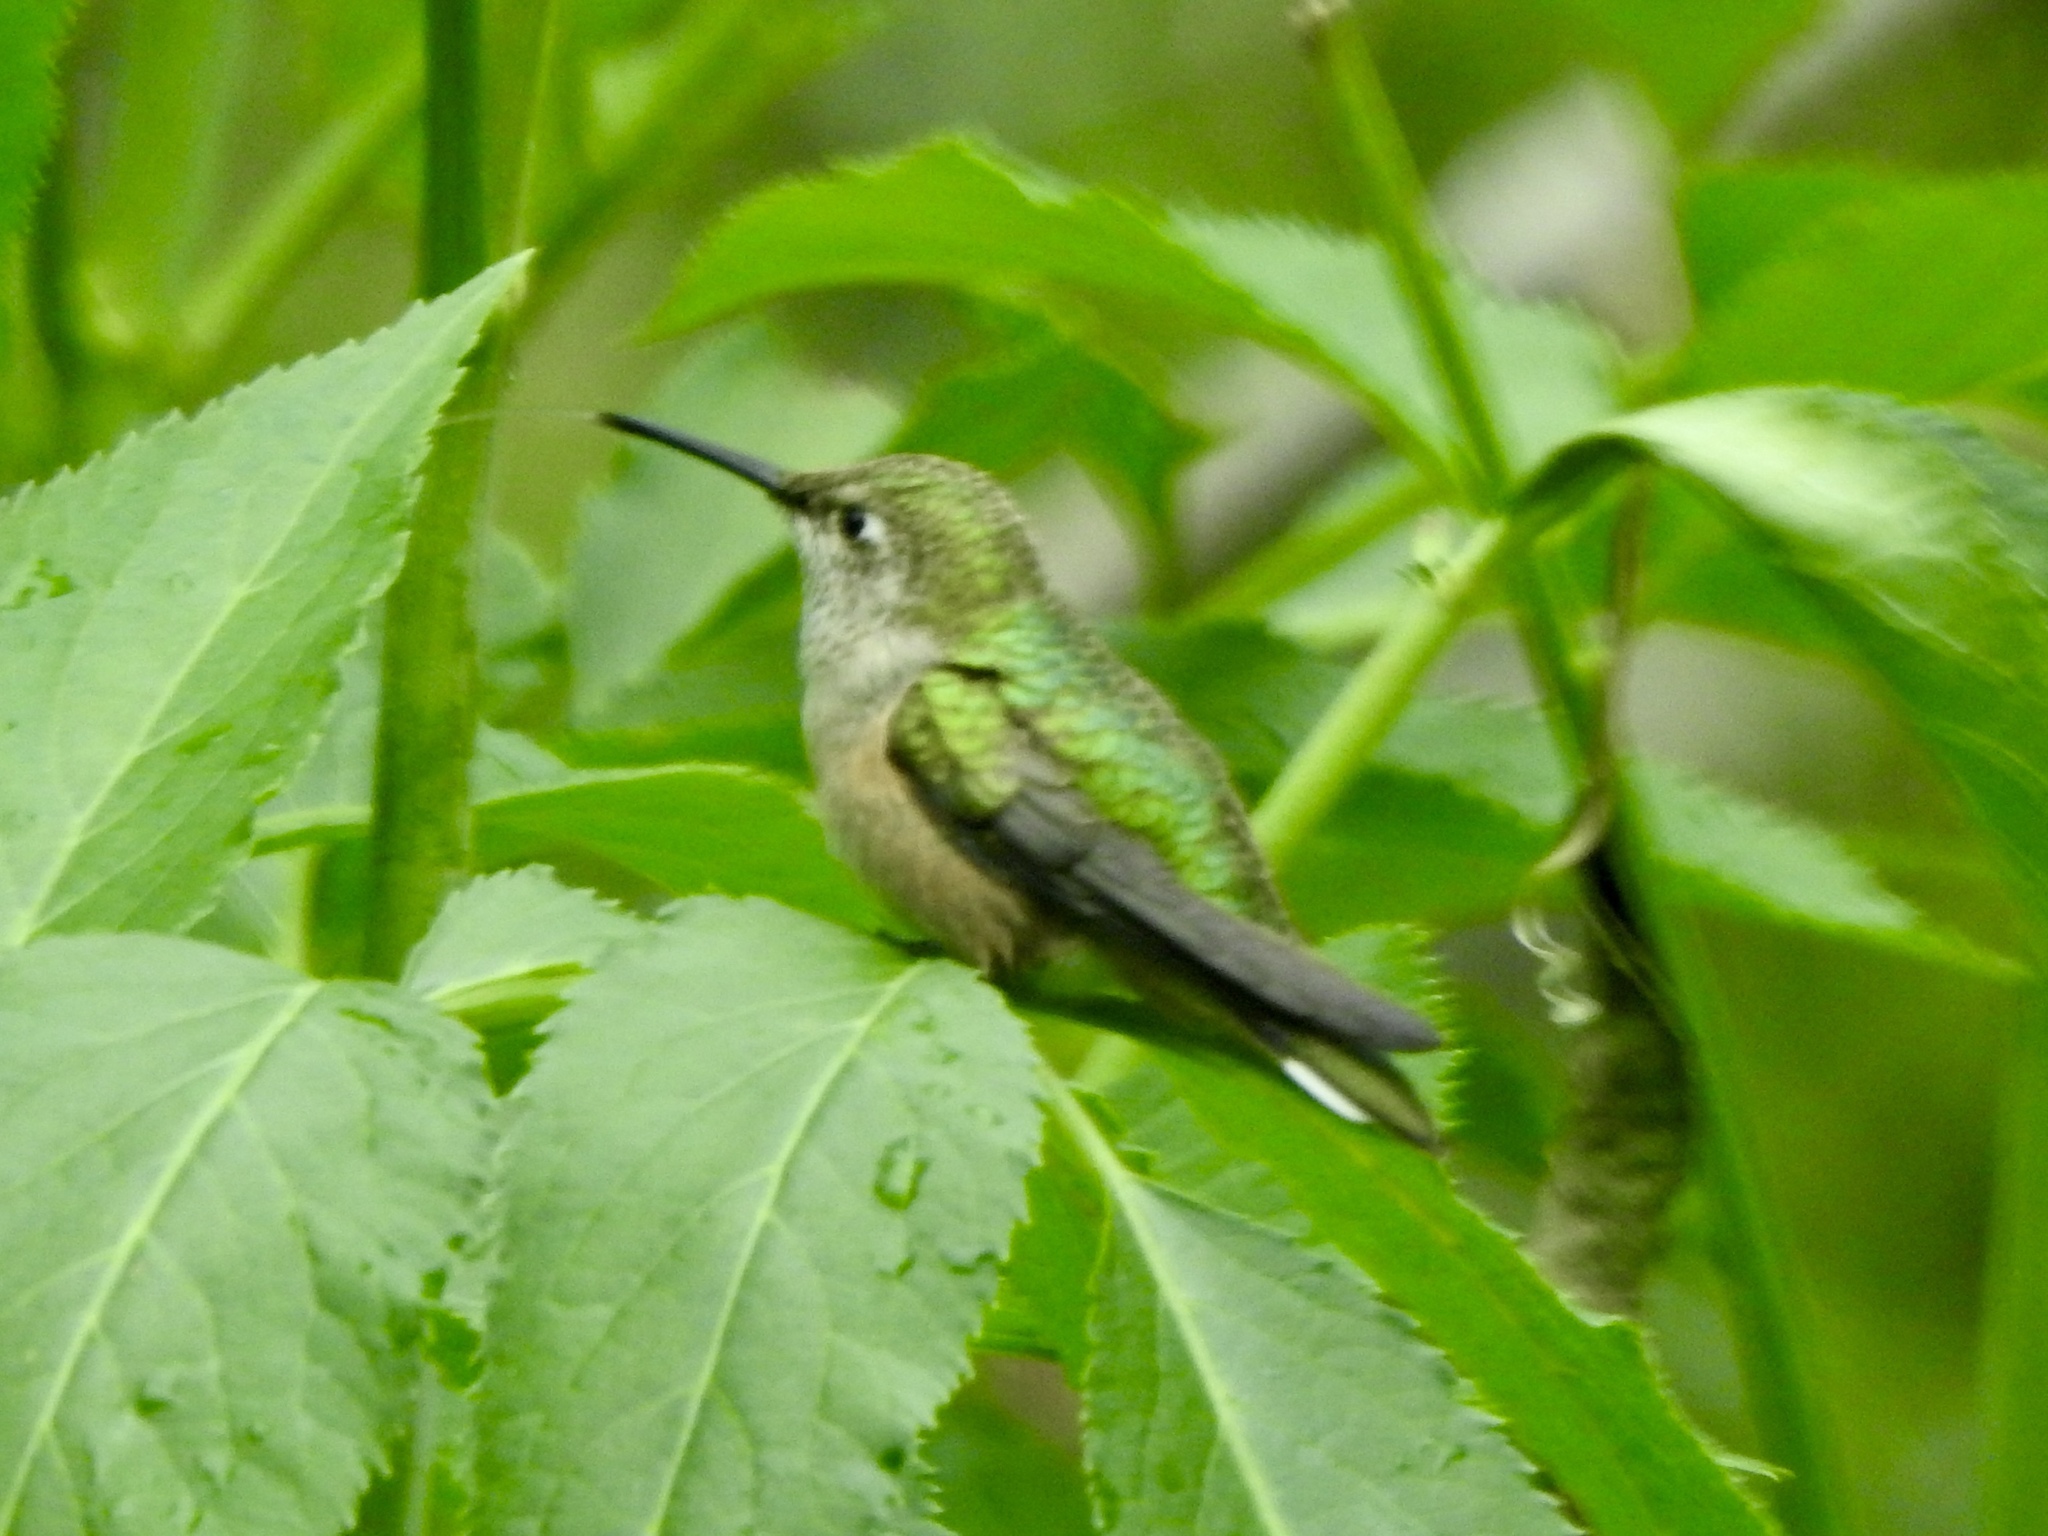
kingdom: Animalia
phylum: Chordata
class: Aves
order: Apodiformes
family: Trochilidae
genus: Selasphorus
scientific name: Selasphorus calliope
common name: Calliope hummingbird
